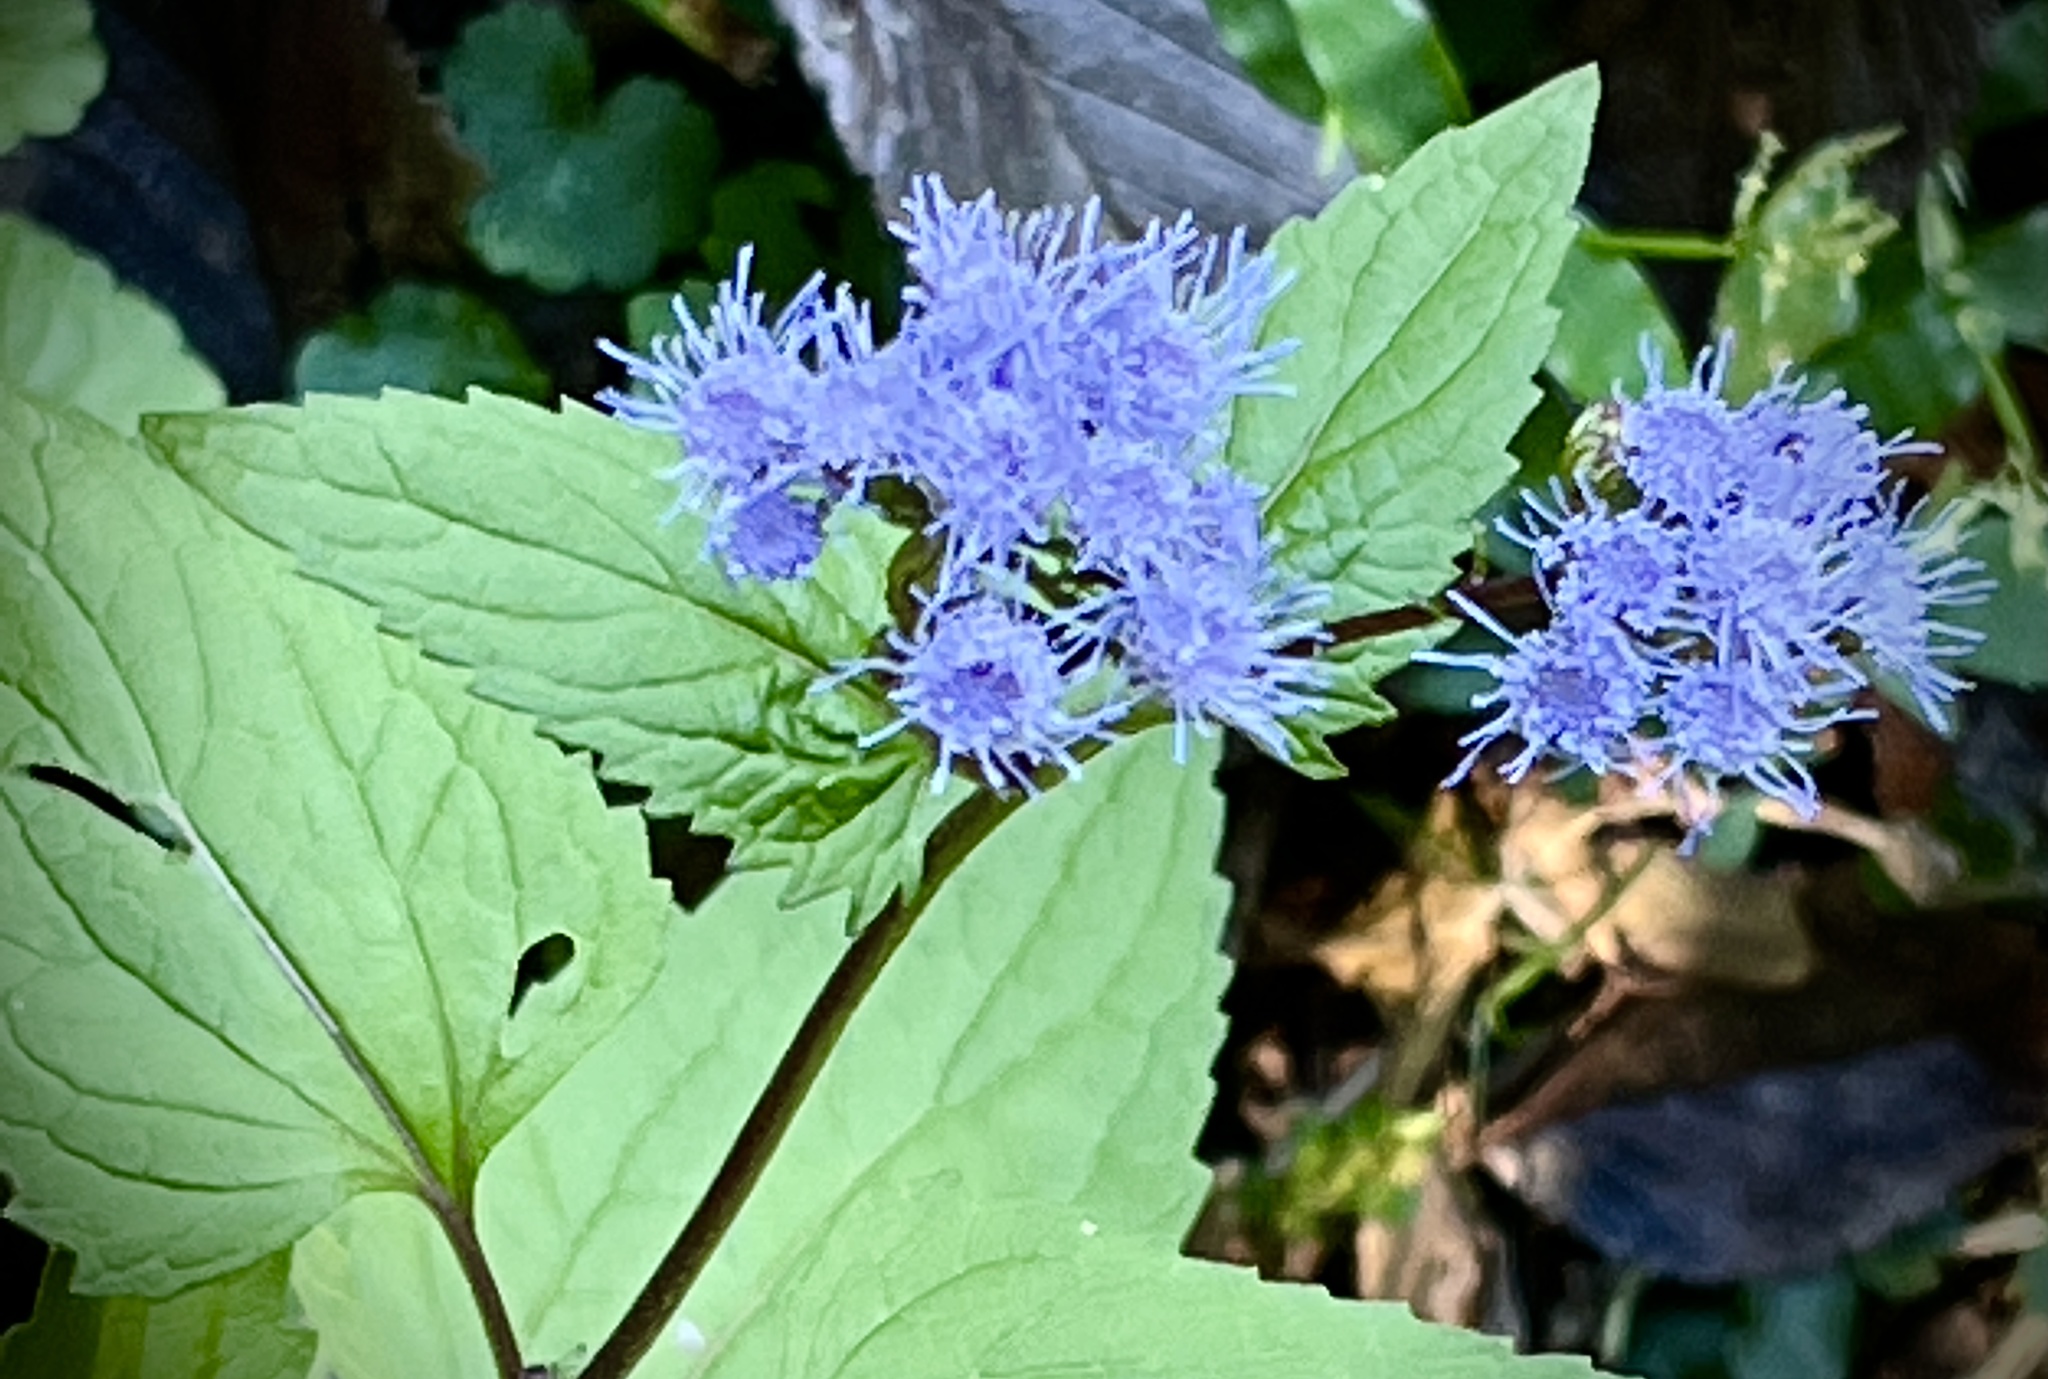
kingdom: Plantae
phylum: Tracheophyta
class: Magnoliopsida
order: Asterales
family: Asteraceae
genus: Conoclinium
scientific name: Conoclinium coelestinum
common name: Blue mistflower
